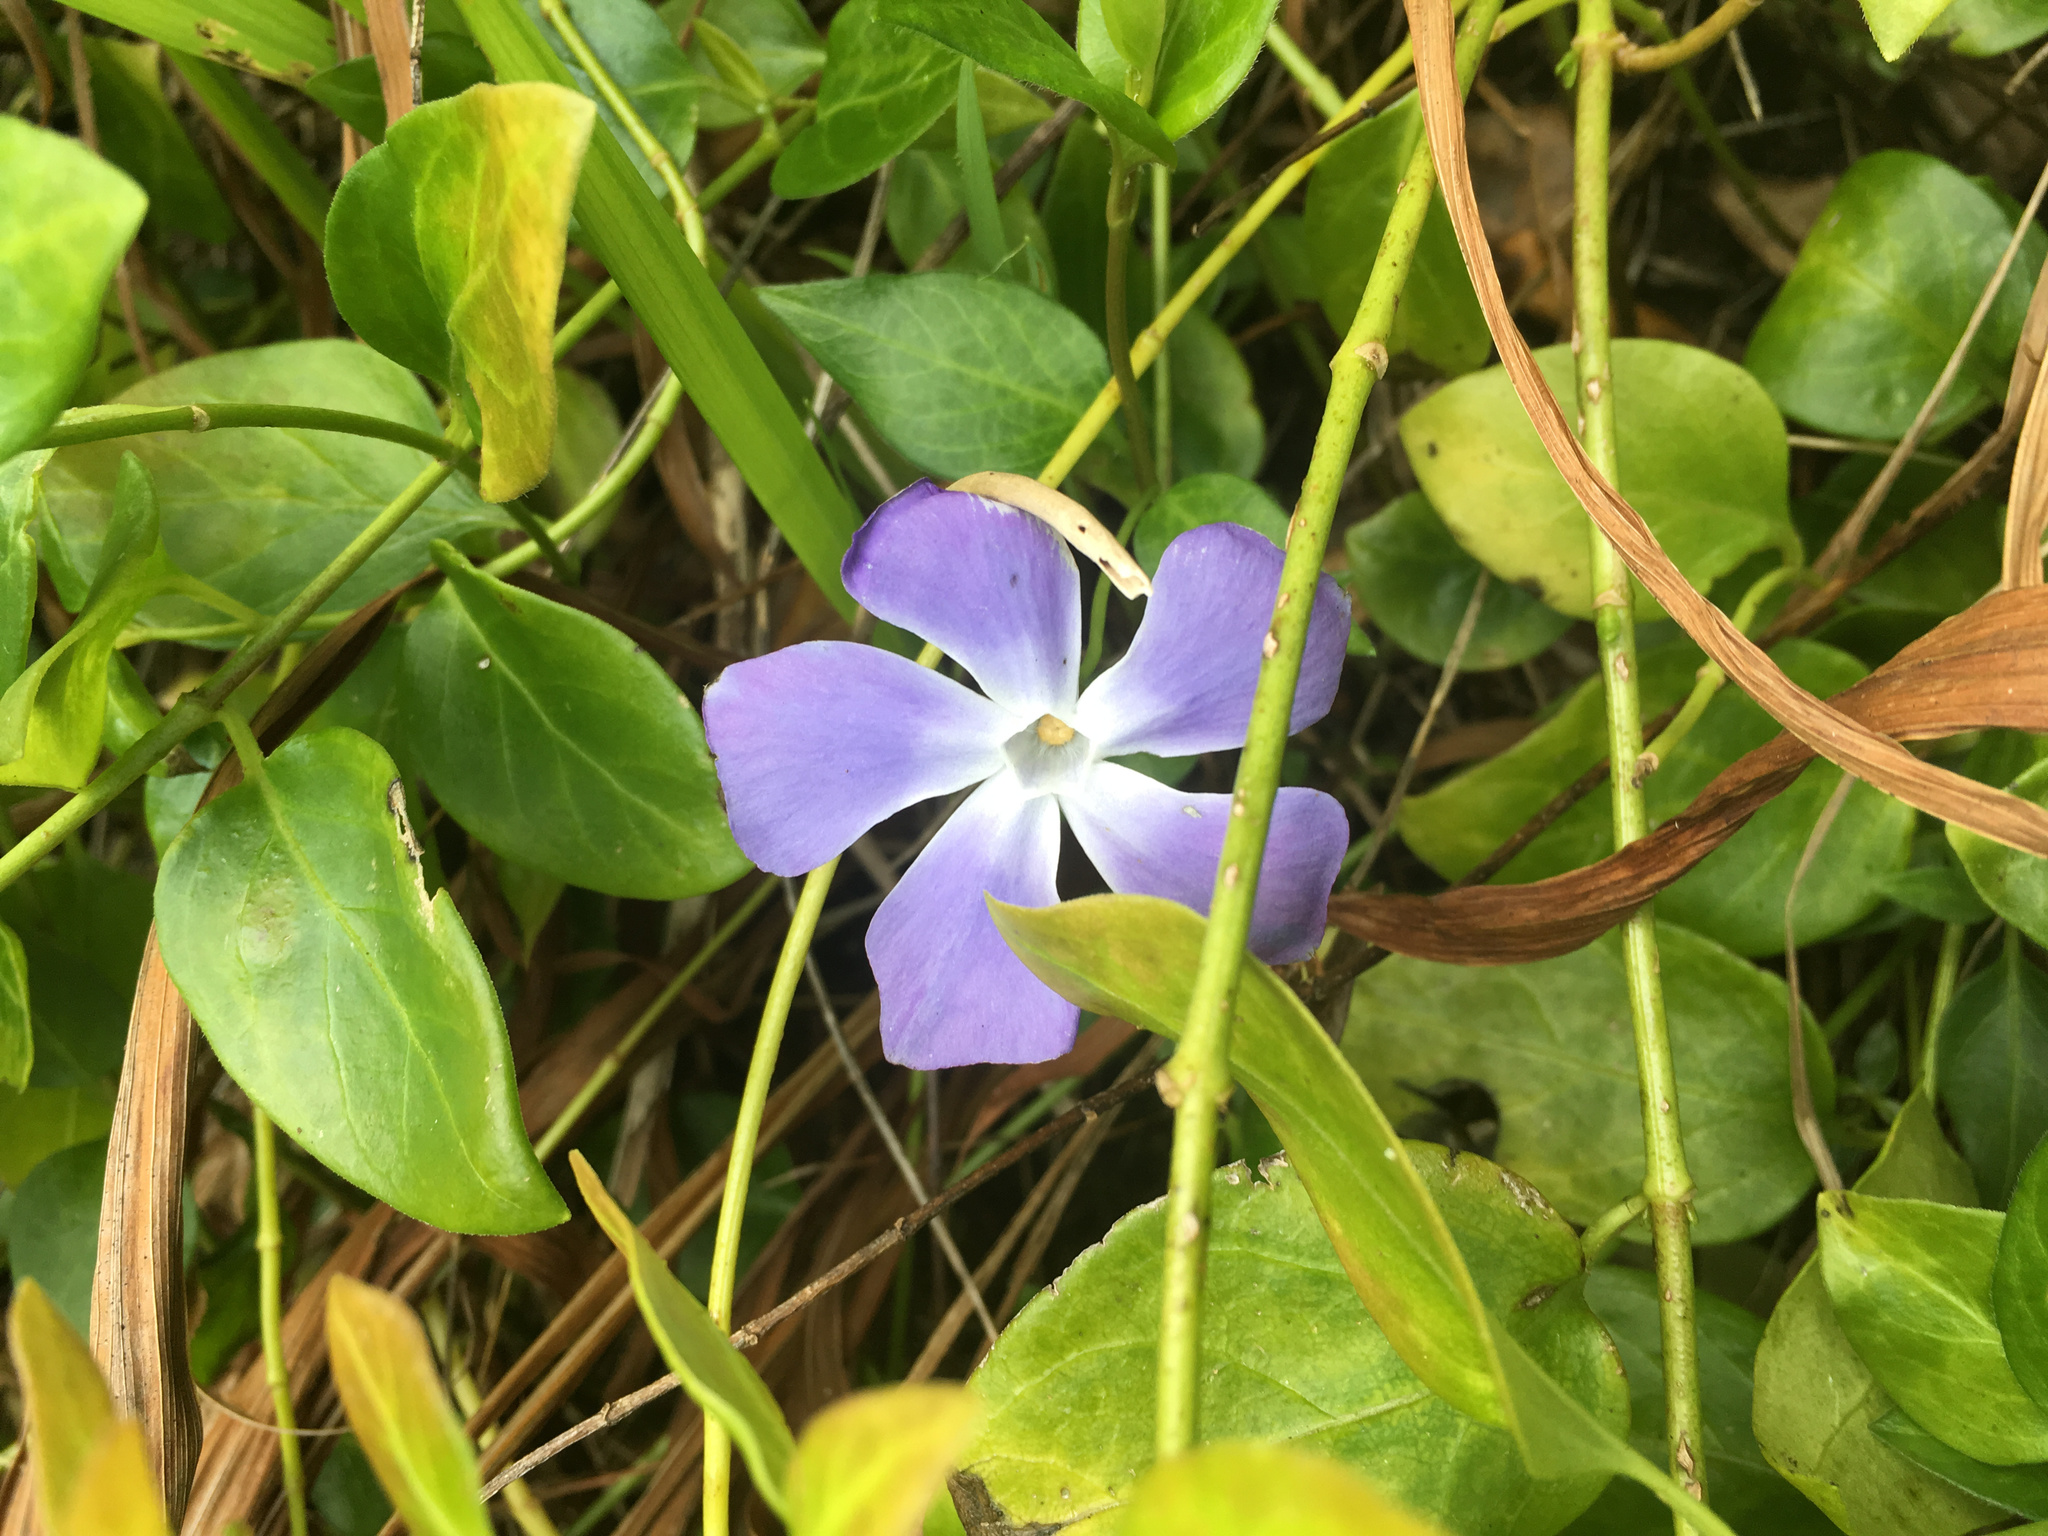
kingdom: Plantae
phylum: Tracheophyta
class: Magnoliopsida
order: Gentianales
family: Apocynaceae
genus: Vinca
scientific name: Vinca major
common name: Greater periwinkle
